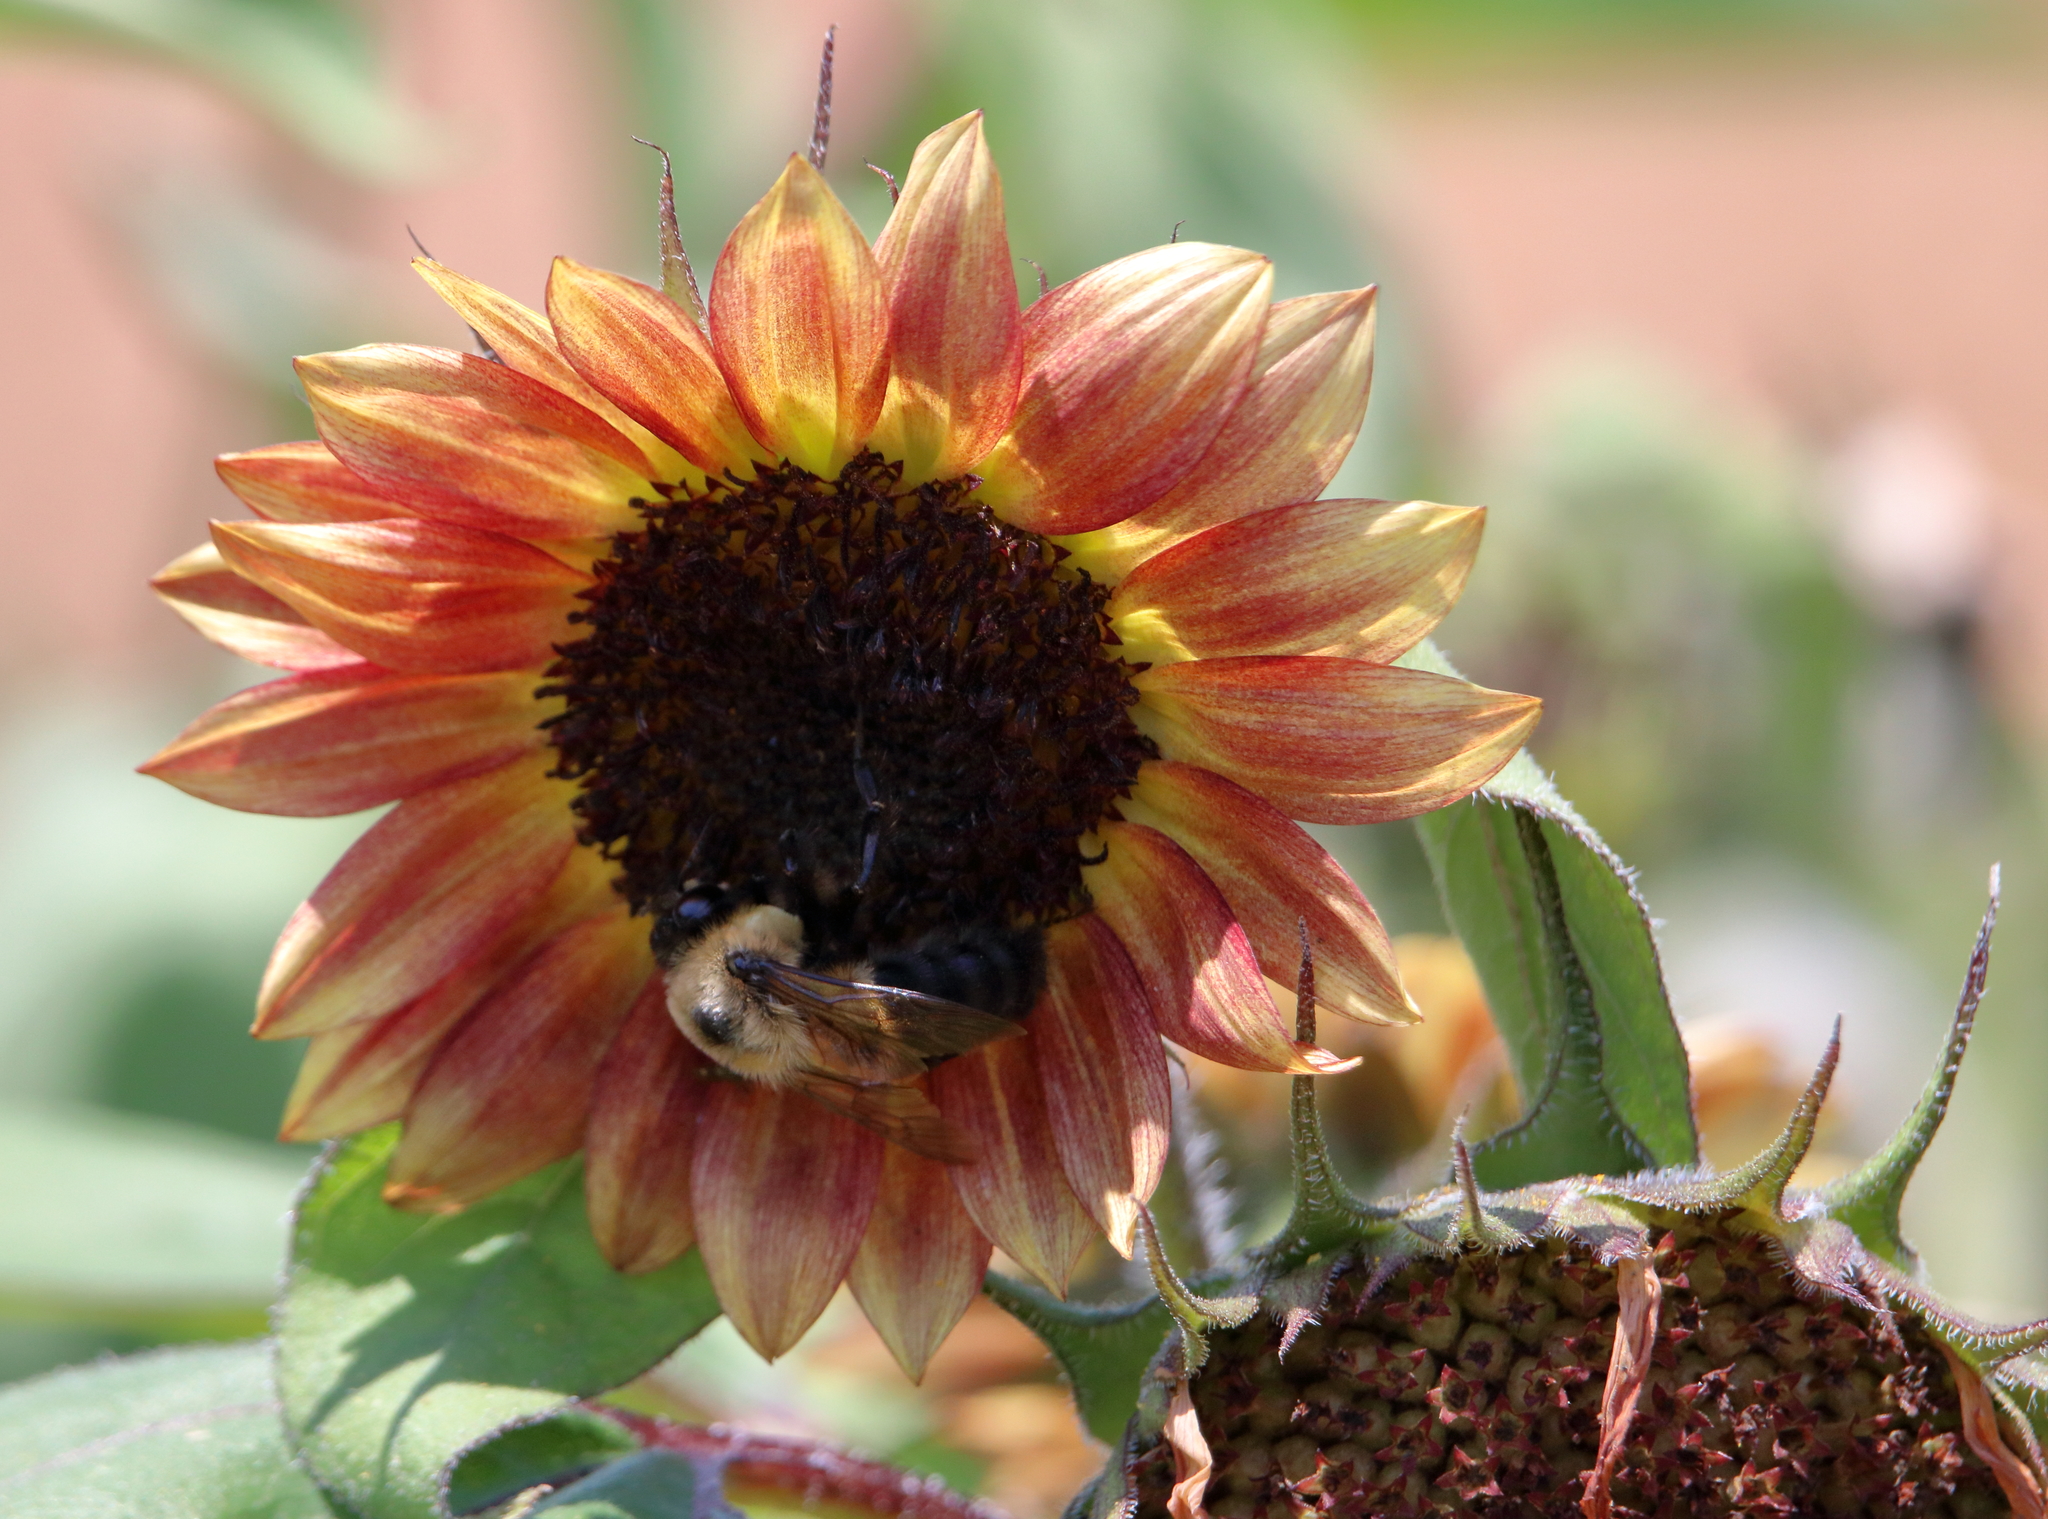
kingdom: Animalia
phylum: Arthropoda
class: Insecta
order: Hymenoptera
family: Apidae
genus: Bombus
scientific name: Bombus griseocollis
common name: Brown-belted bumble bee
